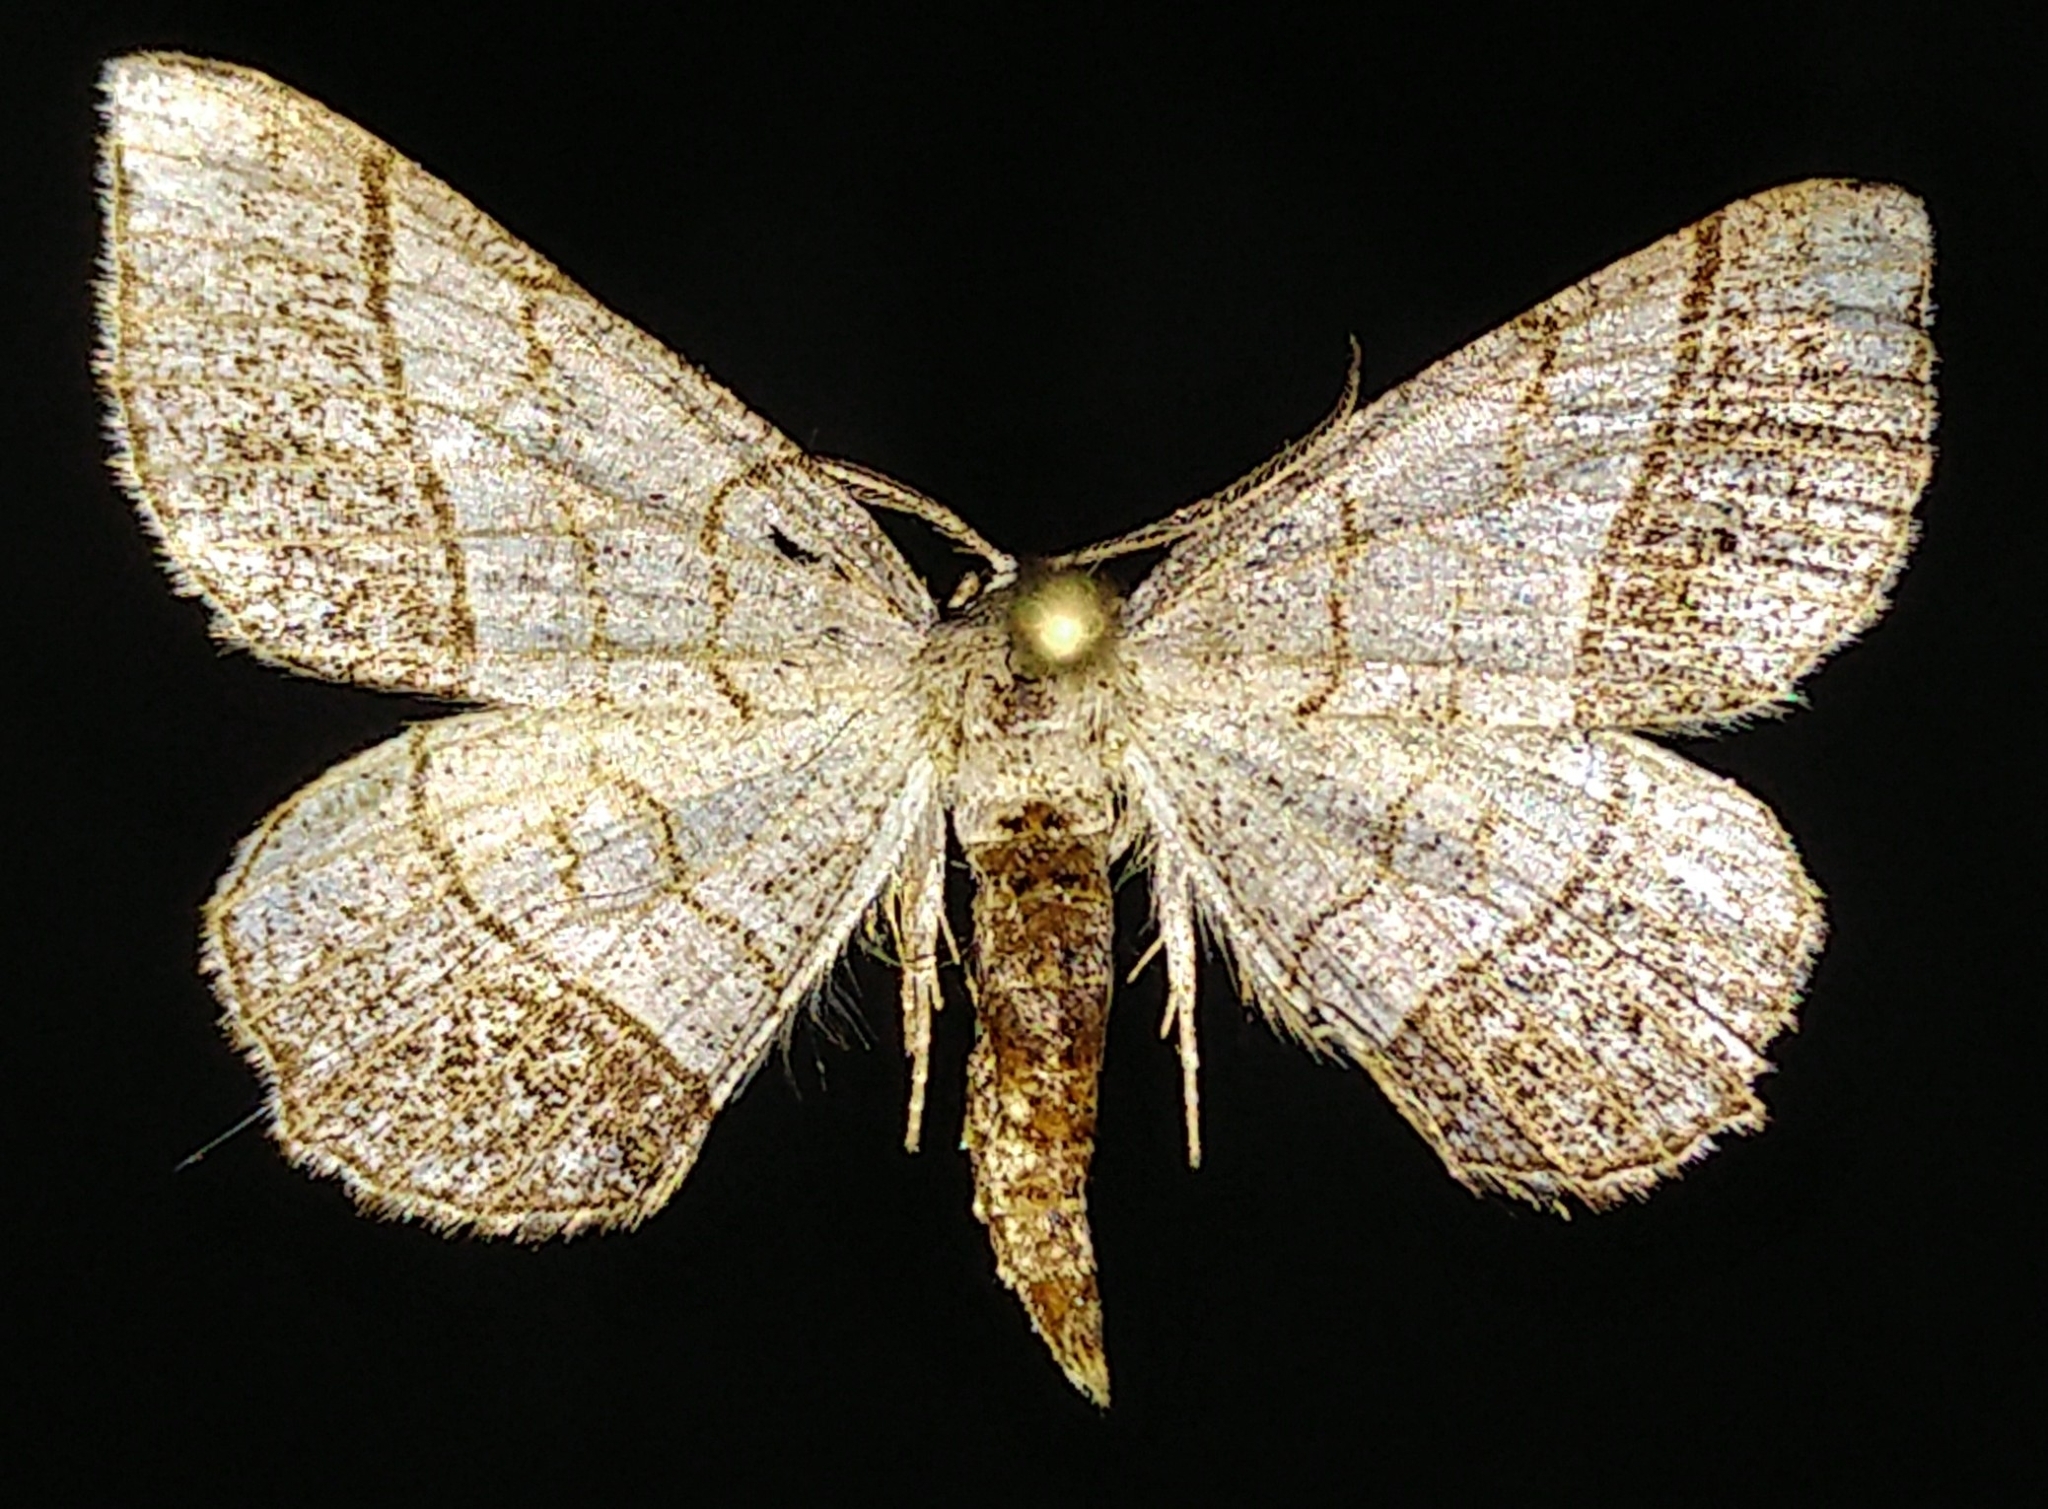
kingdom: Animalia
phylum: Arthropoda
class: Insecta
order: Lepidoptera
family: Geometridae
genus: Eumacaria
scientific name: Eumacaria madopata
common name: Brown-bordered geometer
